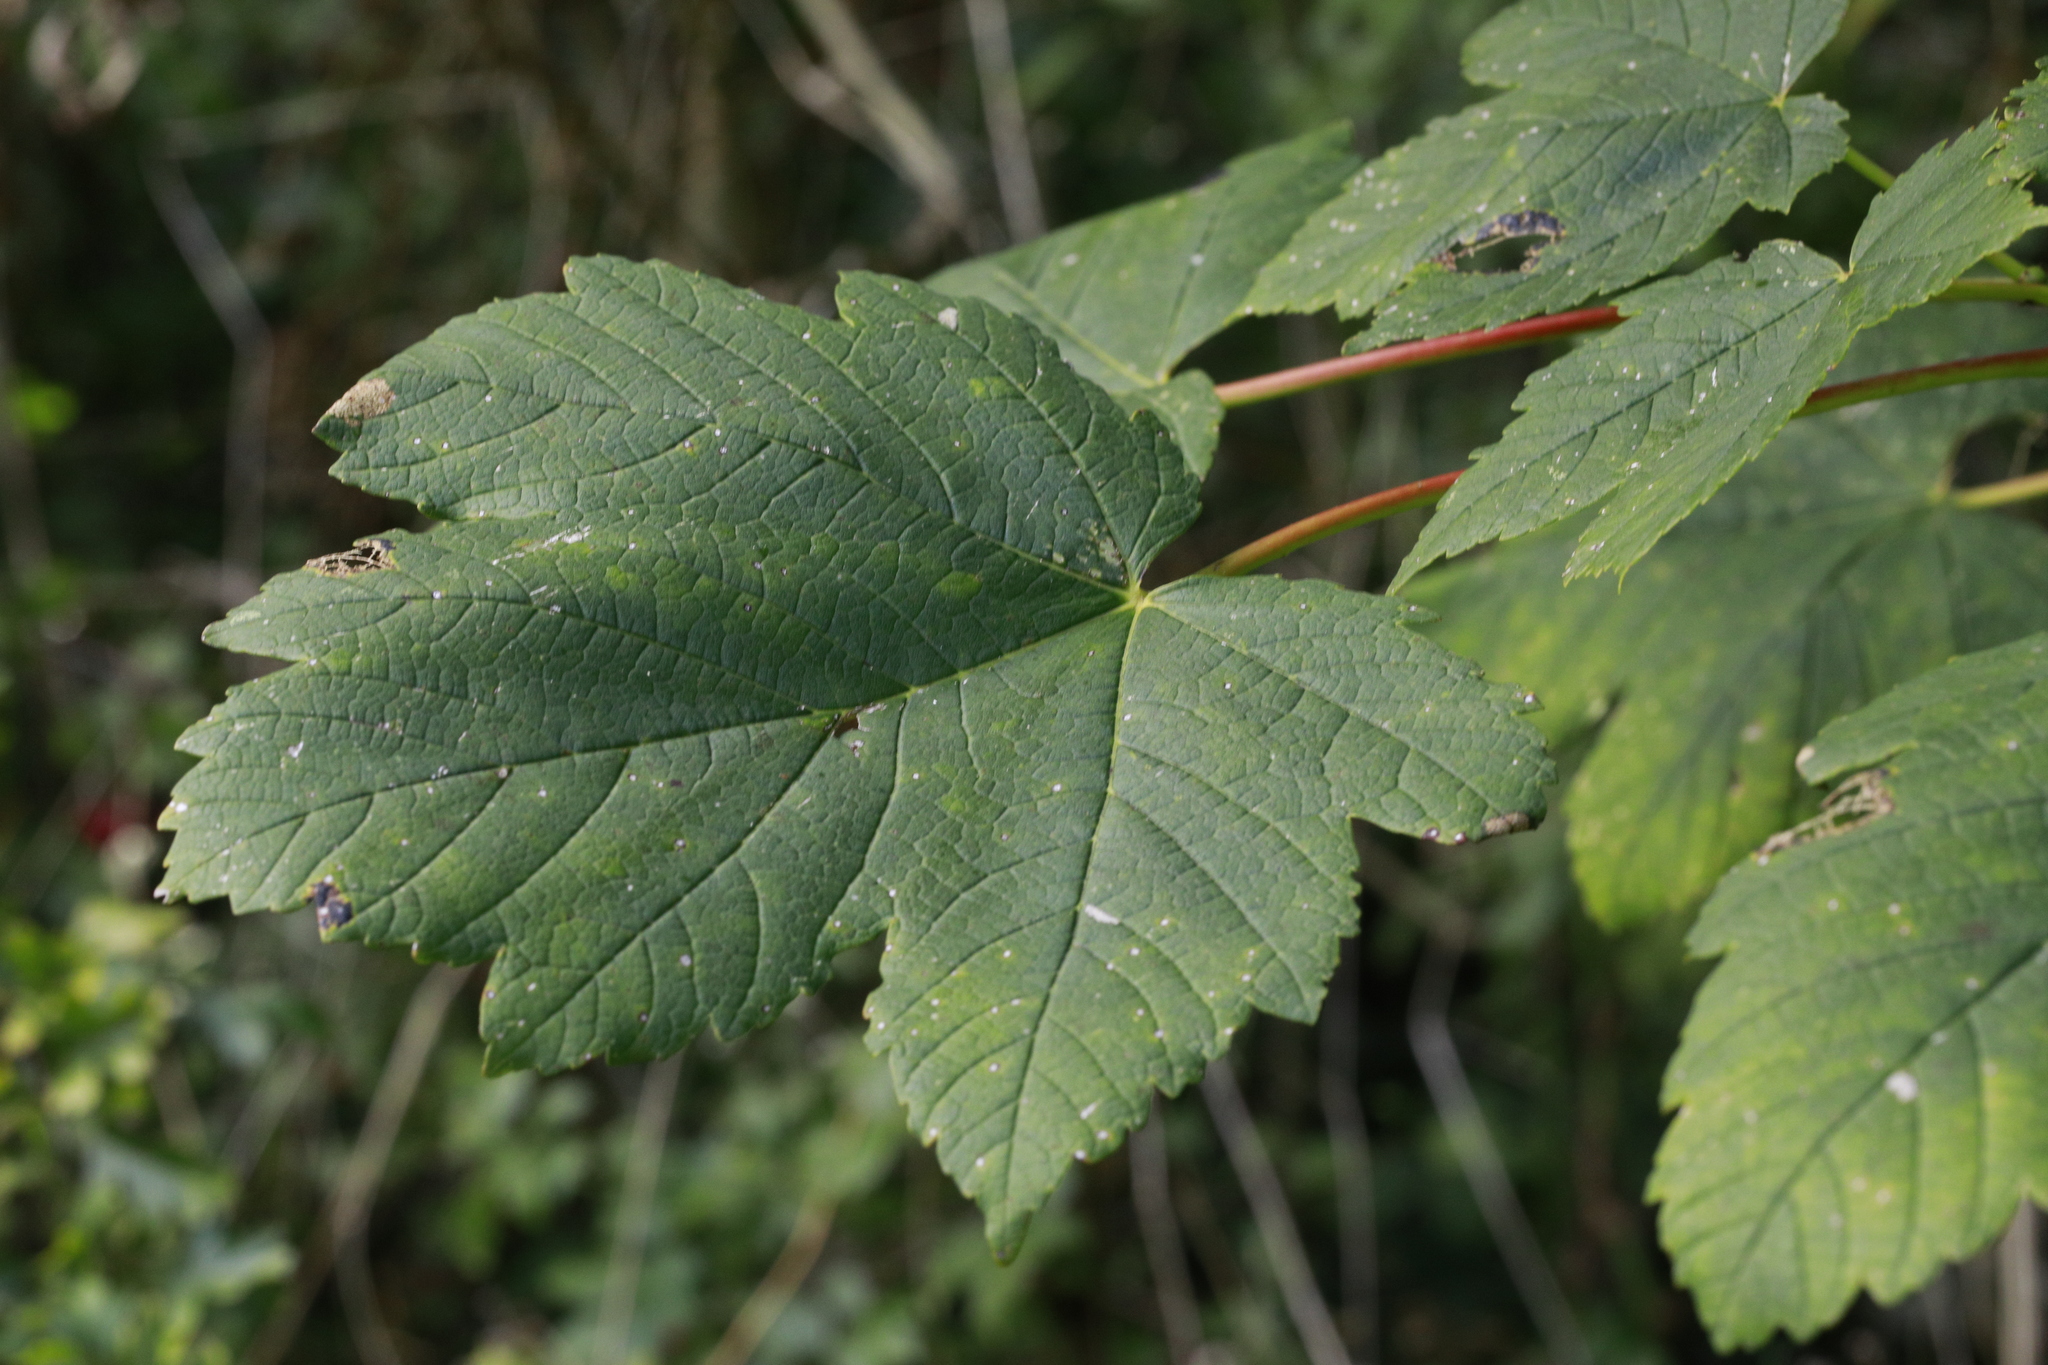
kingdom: Plantae
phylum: Tracheophyta
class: Magnoliopsida
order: Sapindales
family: Sapindaceae
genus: Acer
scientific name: Acer pseudoplatanus
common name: Sycamore
